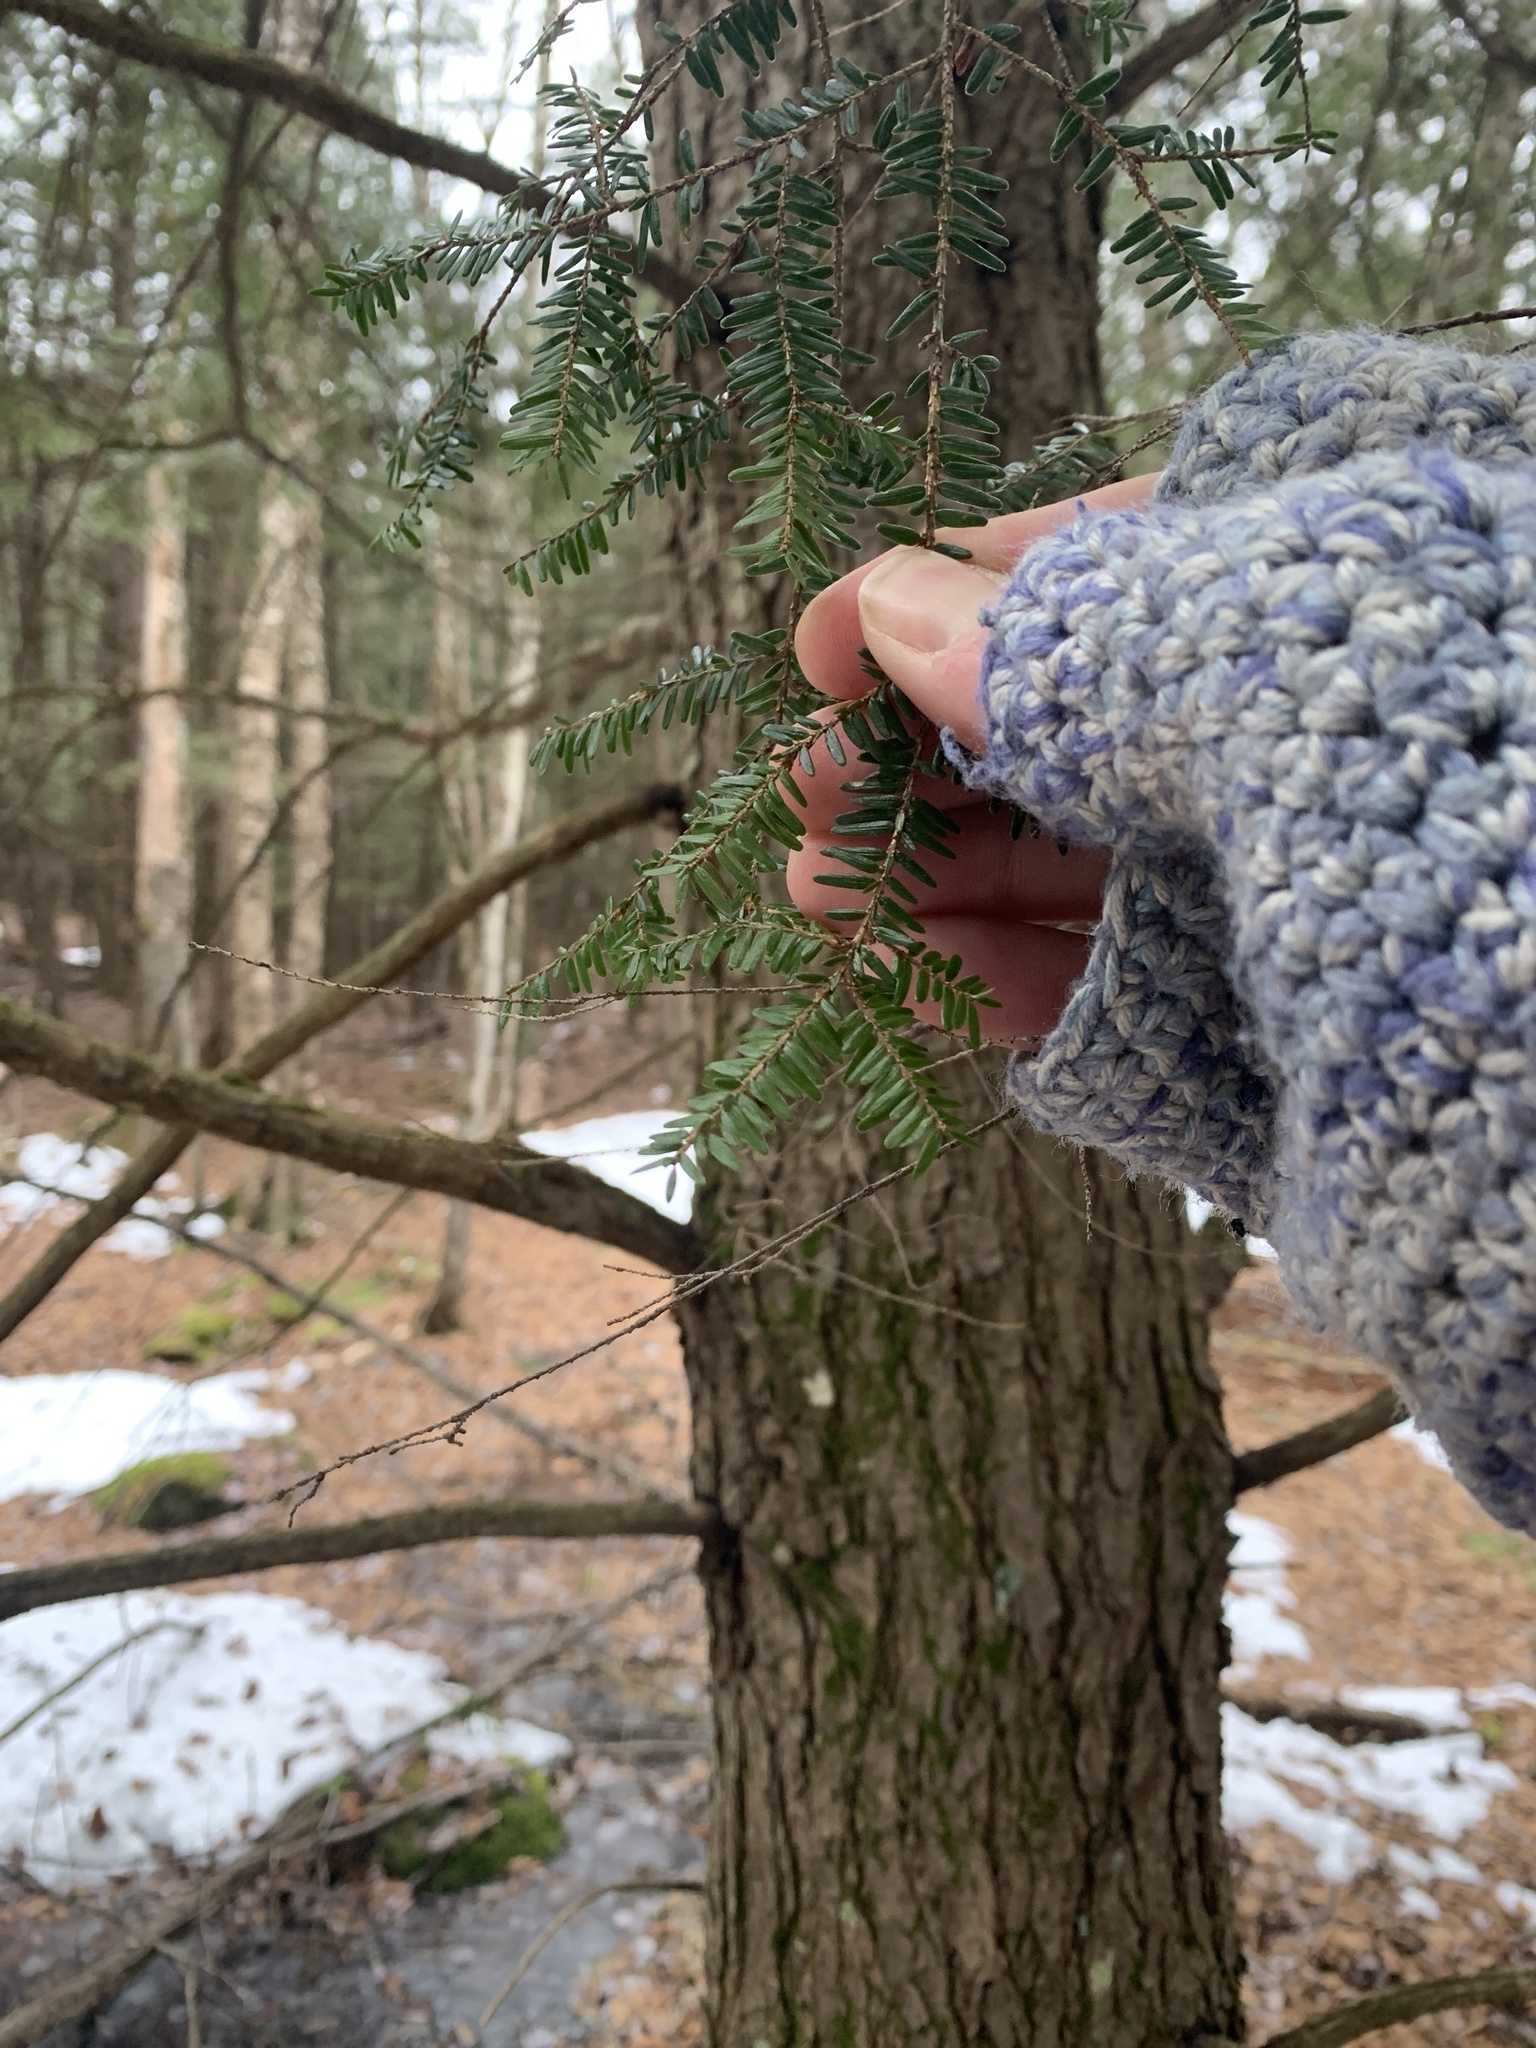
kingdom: Plantae
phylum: Tracheophyta
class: Pinopsida
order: Pinales
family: Pinaceae
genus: Tsuga
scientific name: Tsuga canadensis
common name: Eastern hemlock
